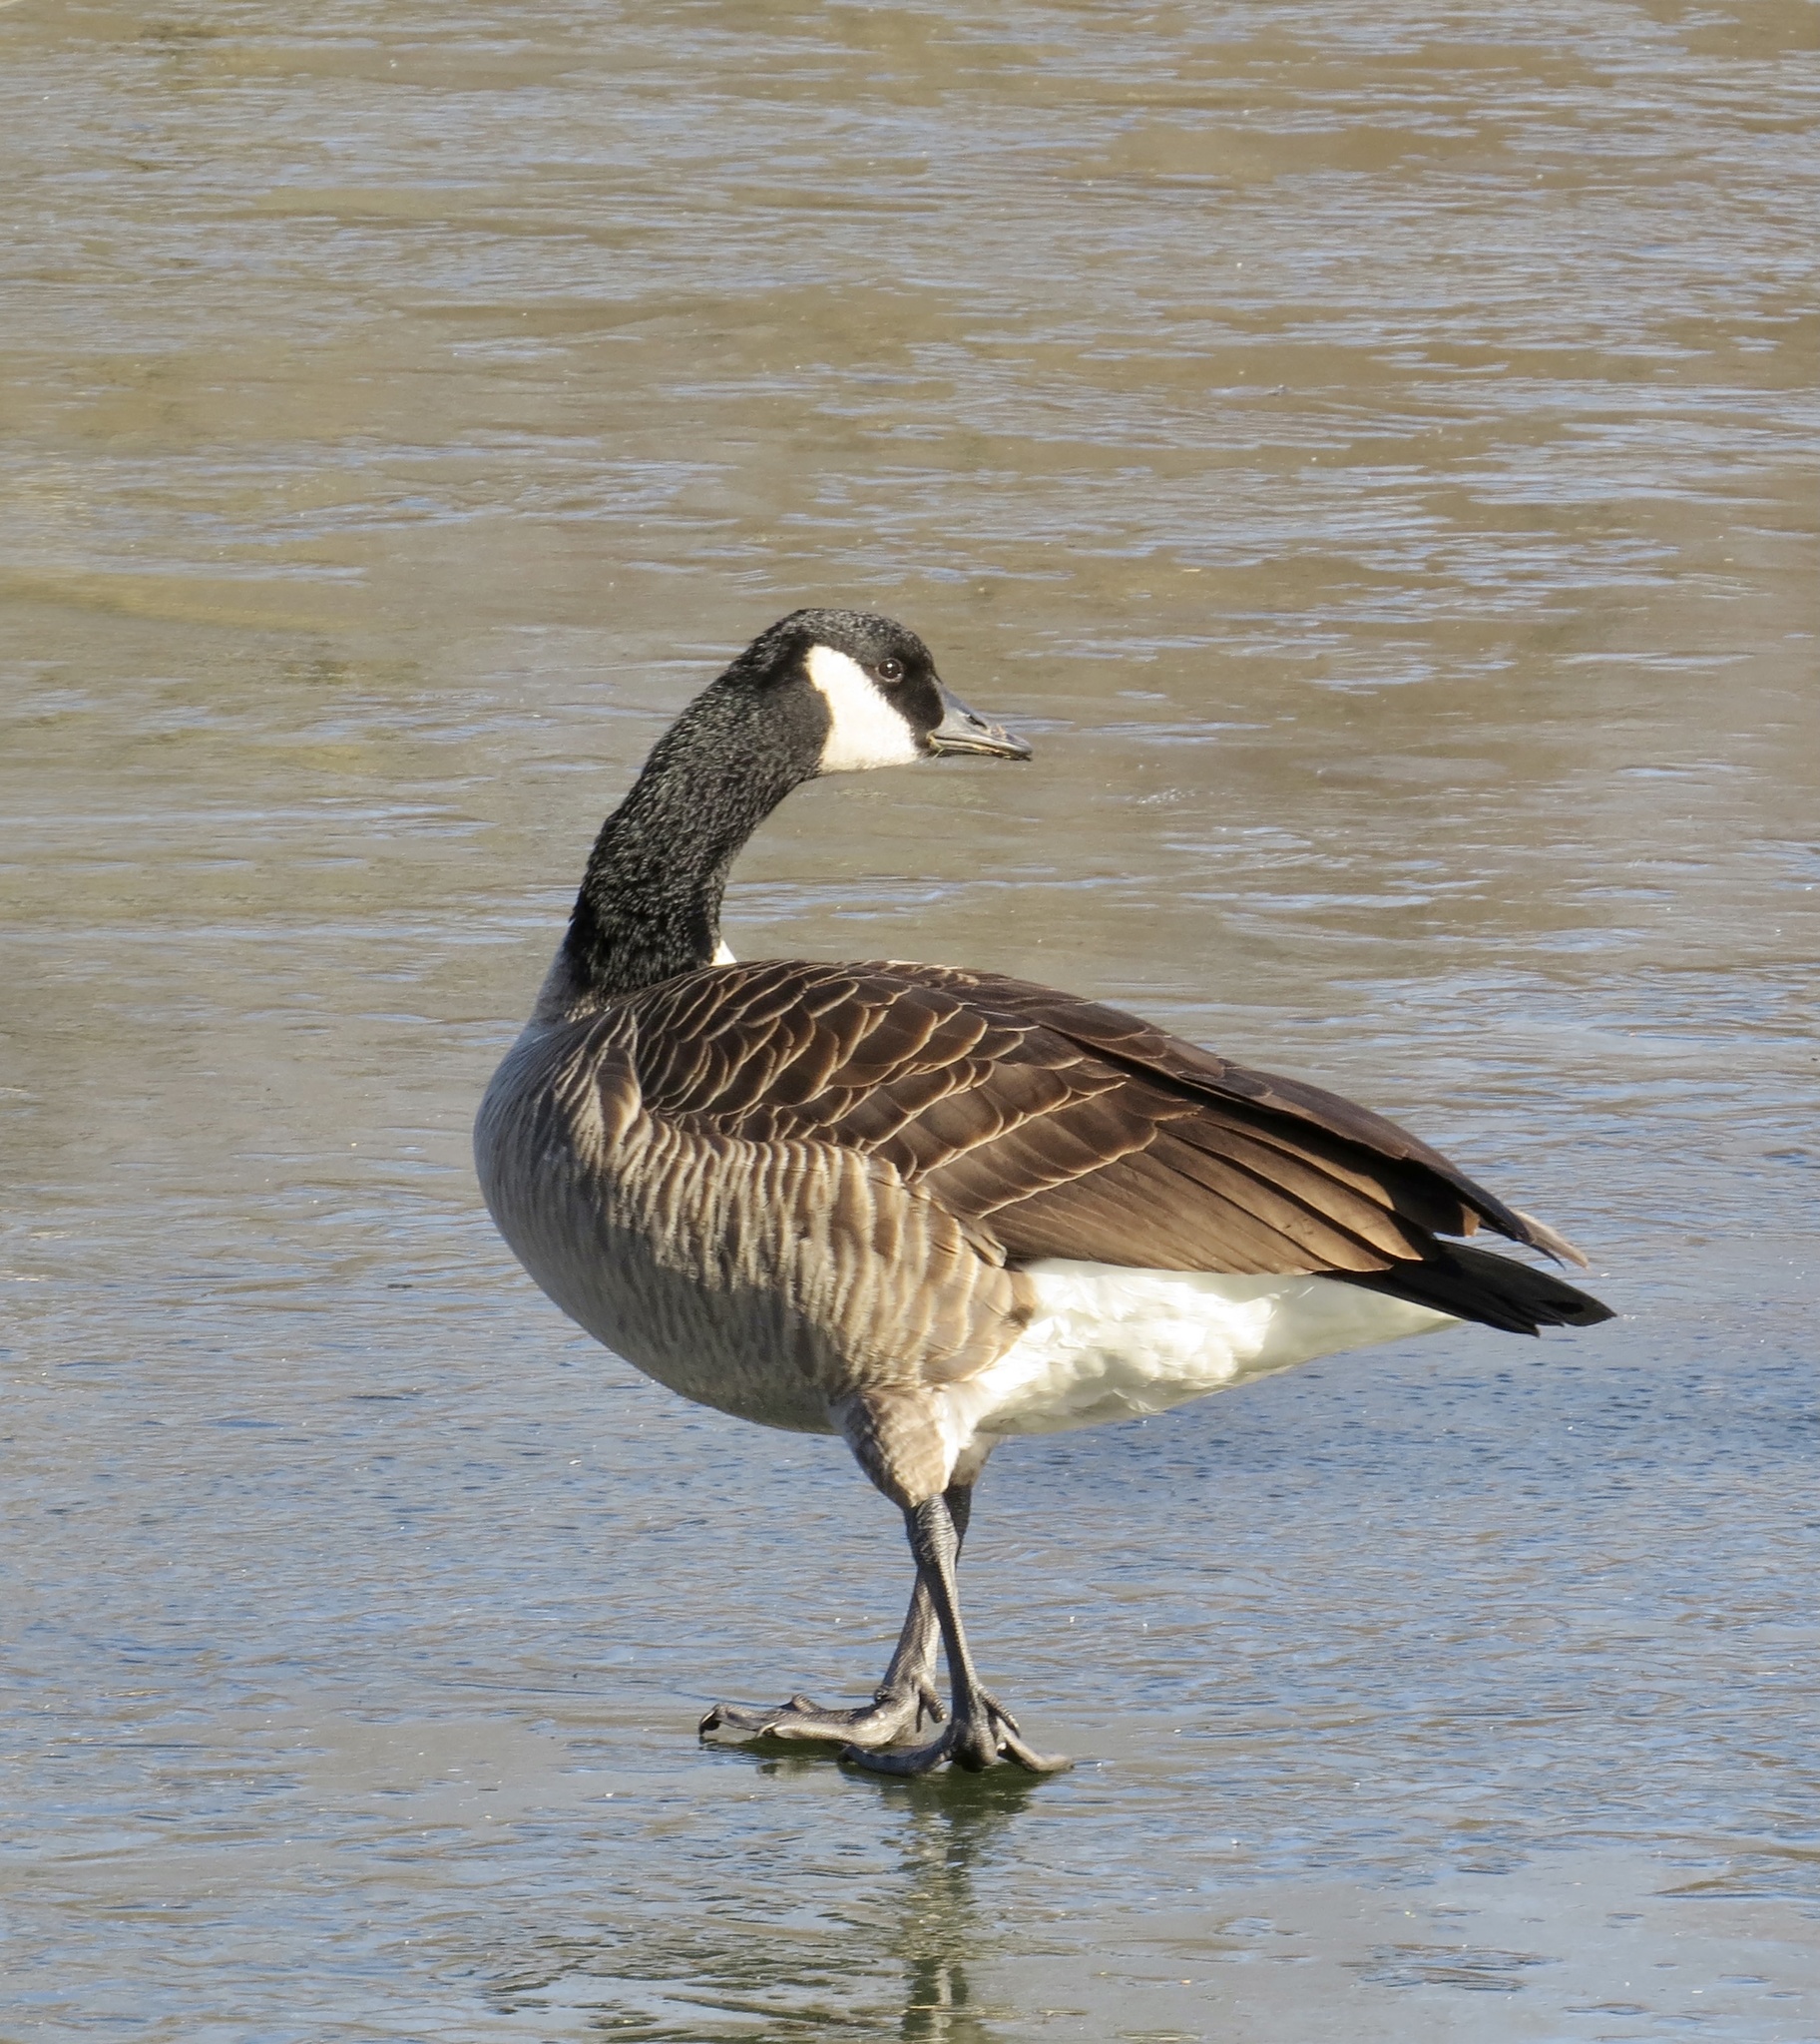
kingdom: Animalia
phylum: Chordata
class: Aves
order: Anseriformes
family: Anatidae
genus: Branta
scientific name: Branta canadensis
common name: Canada goose
